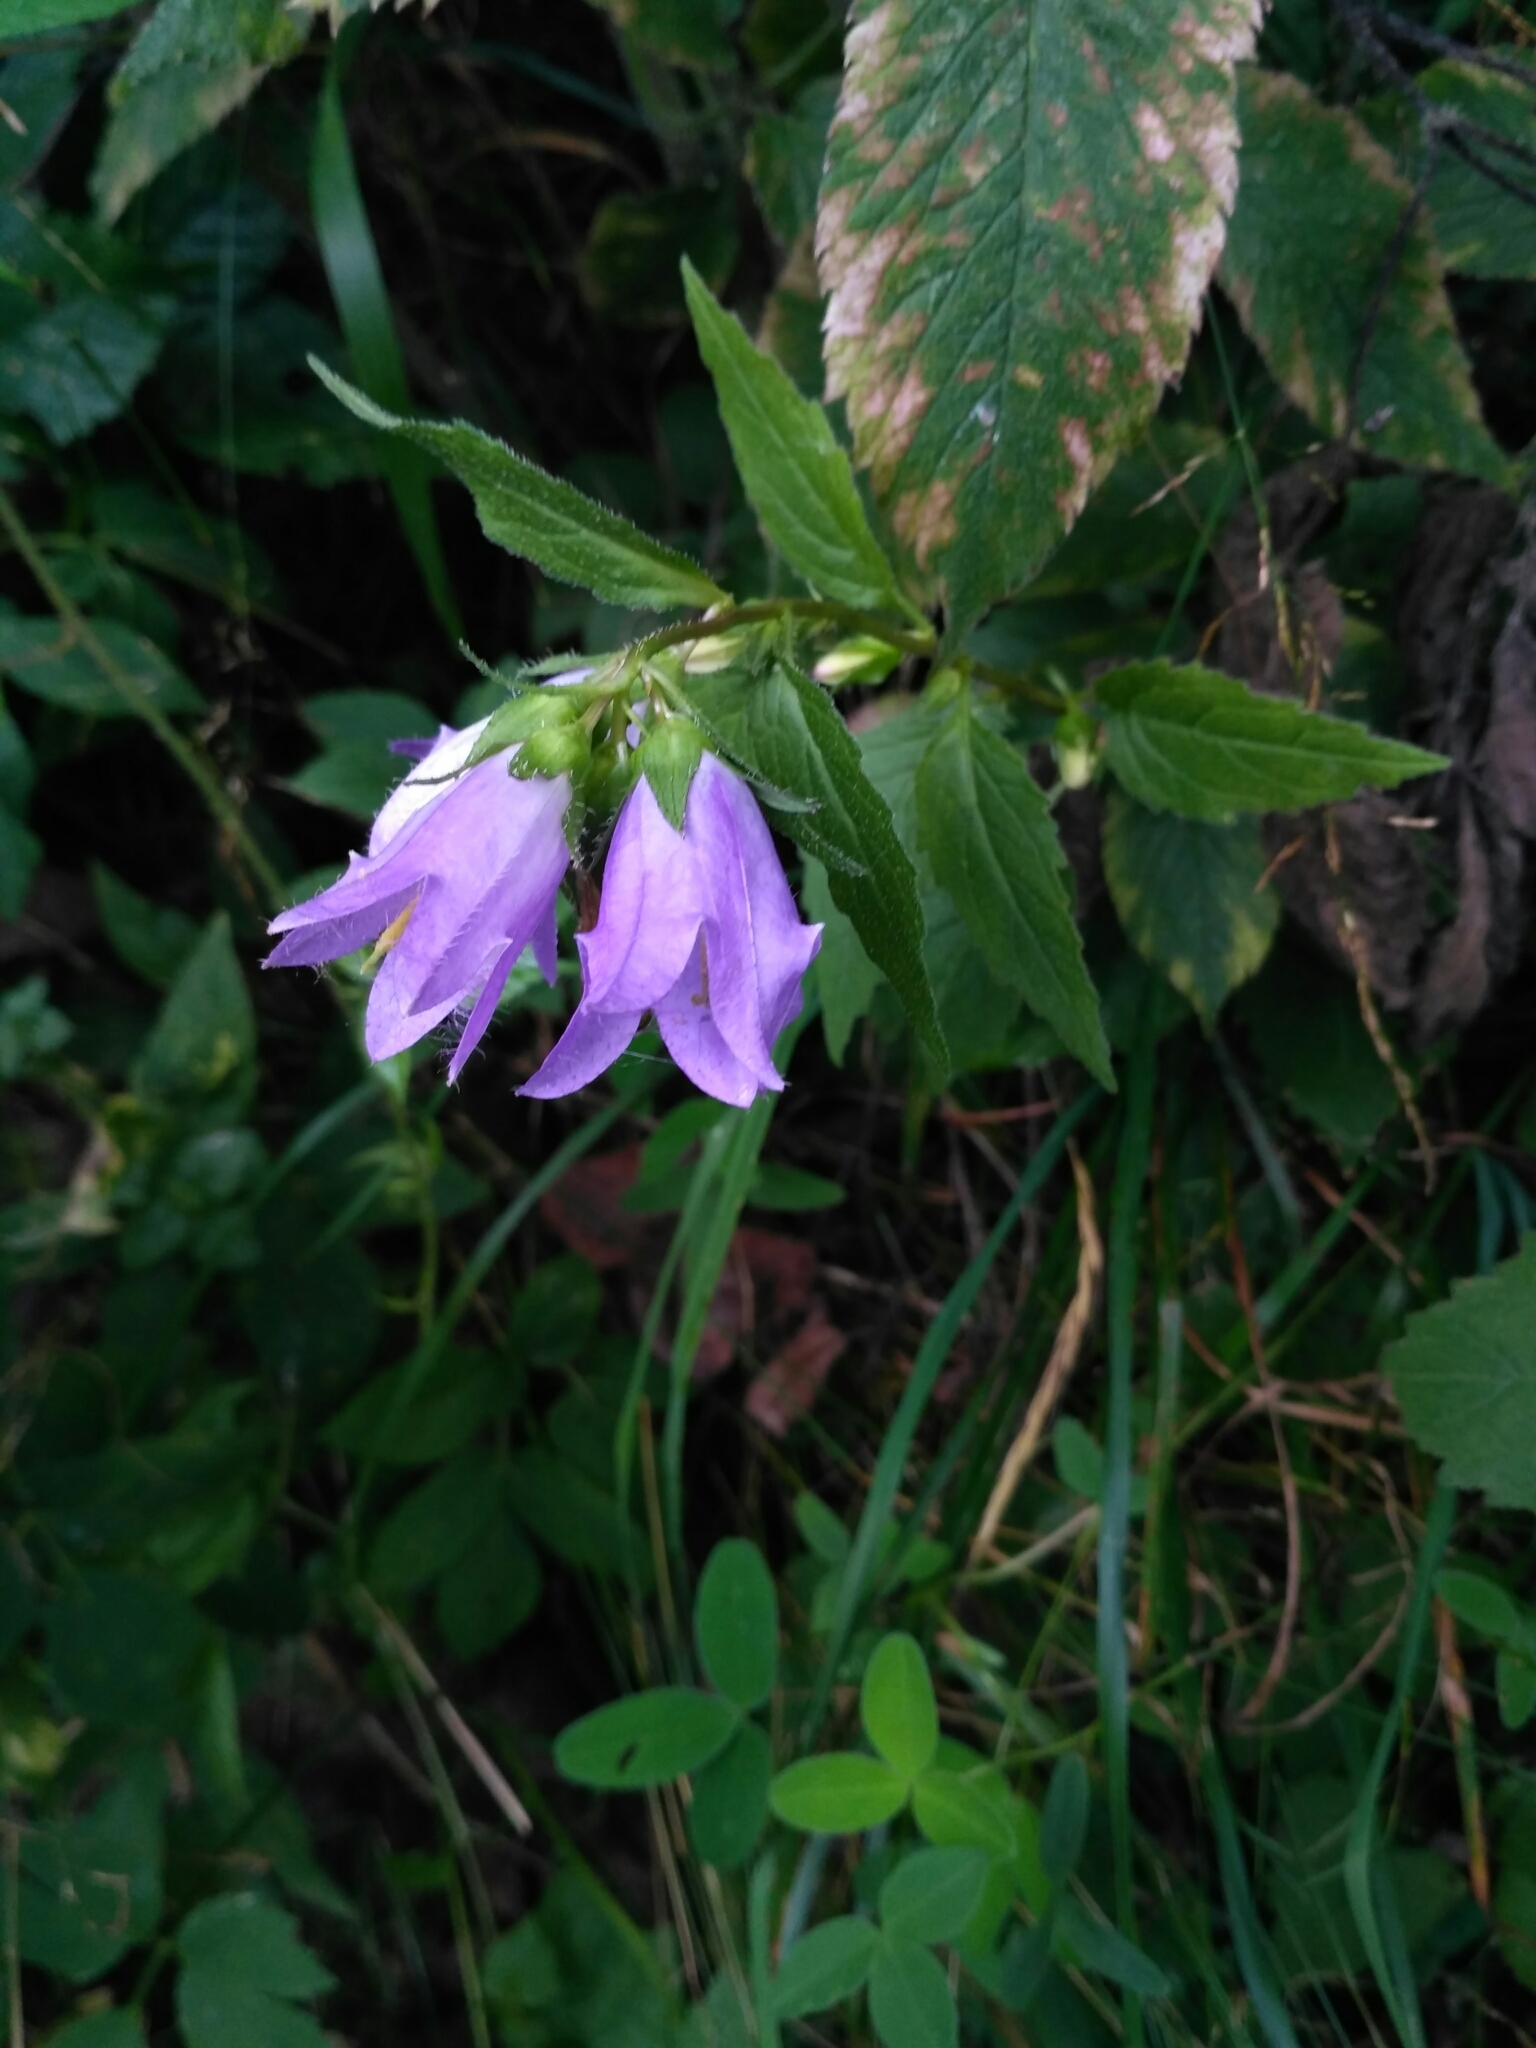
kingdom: Plantae
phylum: Tracheophyta
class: Magnoliopsida
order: Asterales
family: Campanulaceae
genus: Campanula
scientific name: Campanula trachelium
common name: Nettle-leaved bellflower
